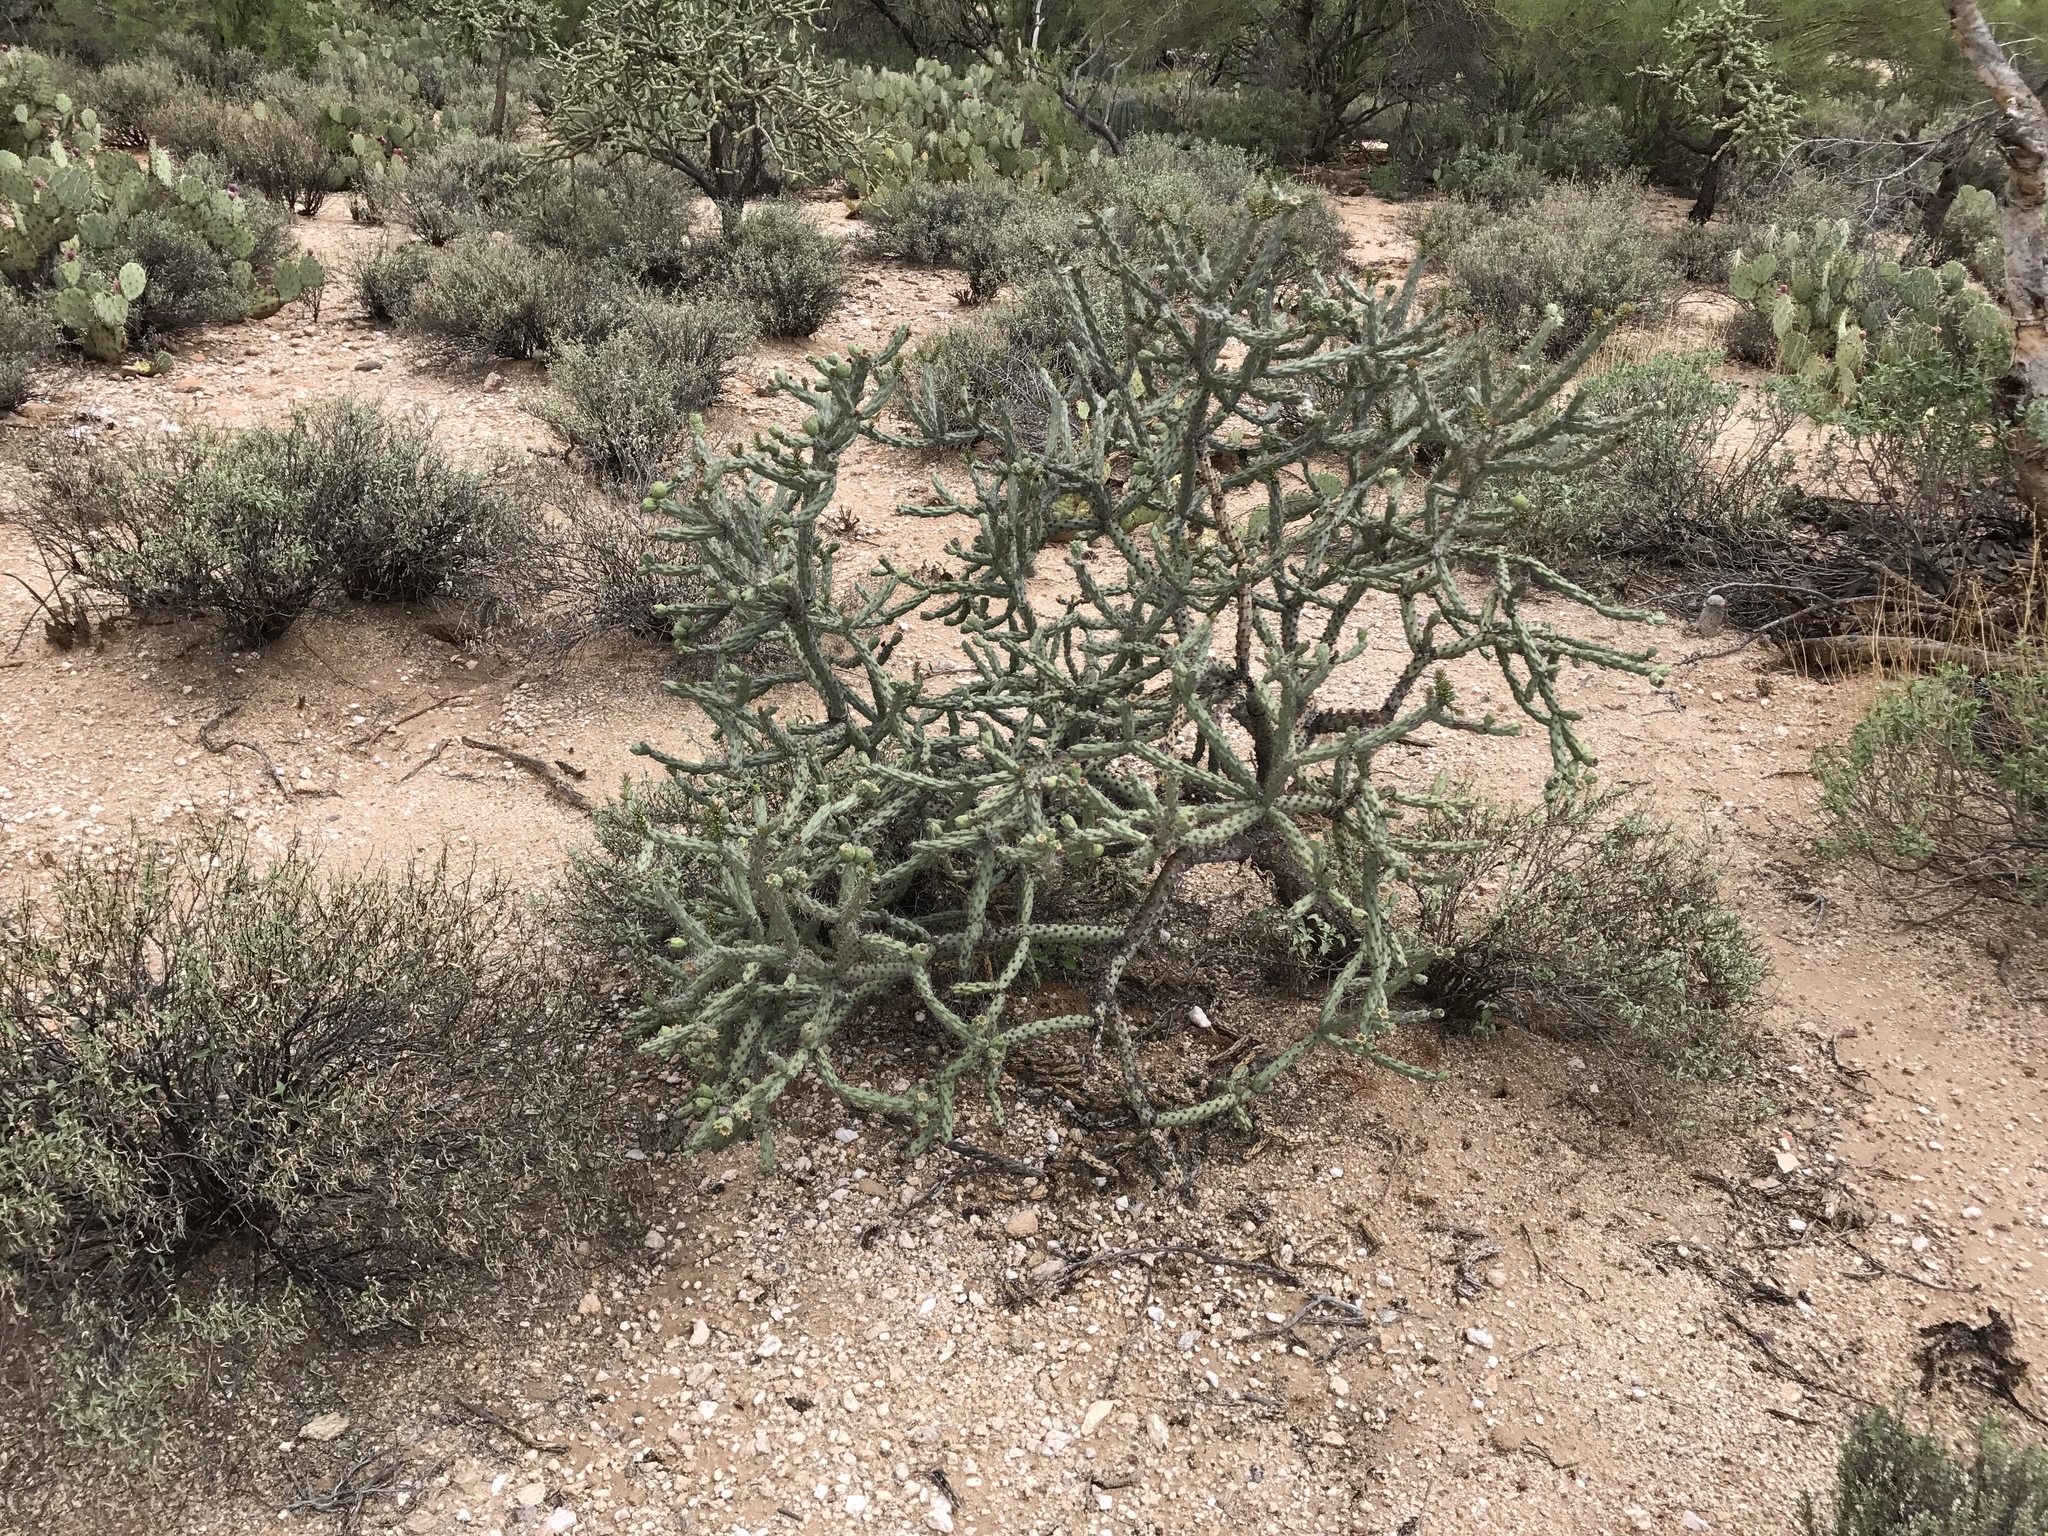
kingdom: Plantae
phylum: Tracheophyta
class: Magnoliopsida
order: Caryophyllales
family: Cactaceae
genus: Cylindropuntia
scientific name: Cylindropuntia thurberi
